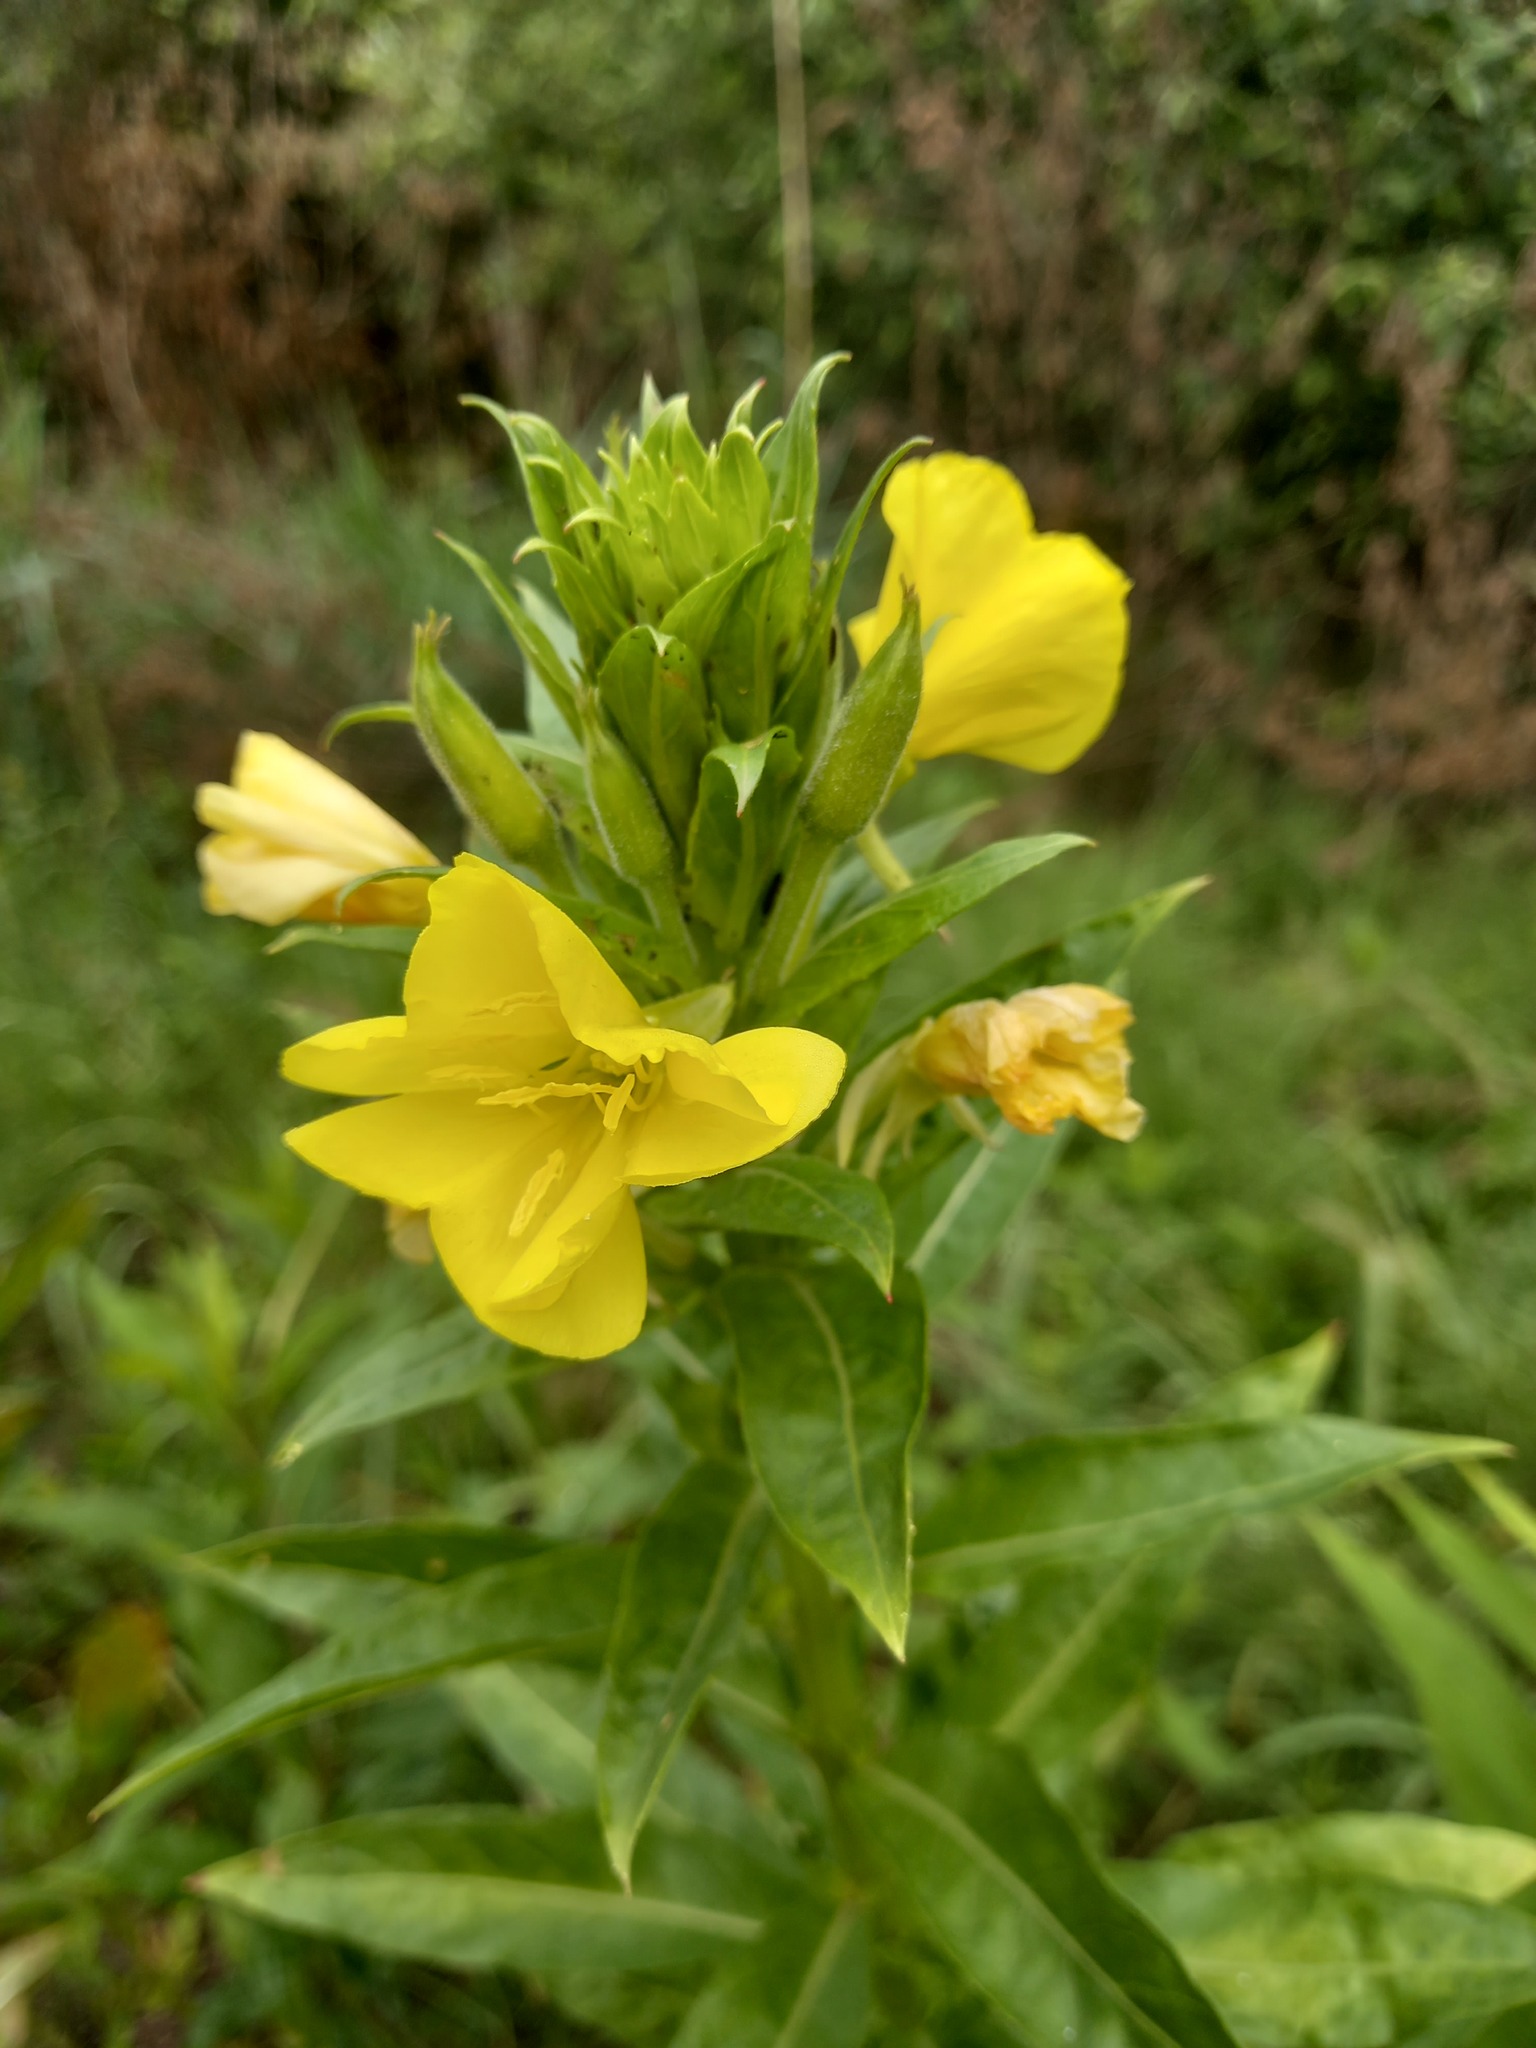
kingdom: Plantae
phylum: Tracheophyta
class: Magnoliopsida
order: Myrtales
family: Onagraceae
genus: Oenothera
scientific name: Oenothera biennis
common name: Common evening-primrose
